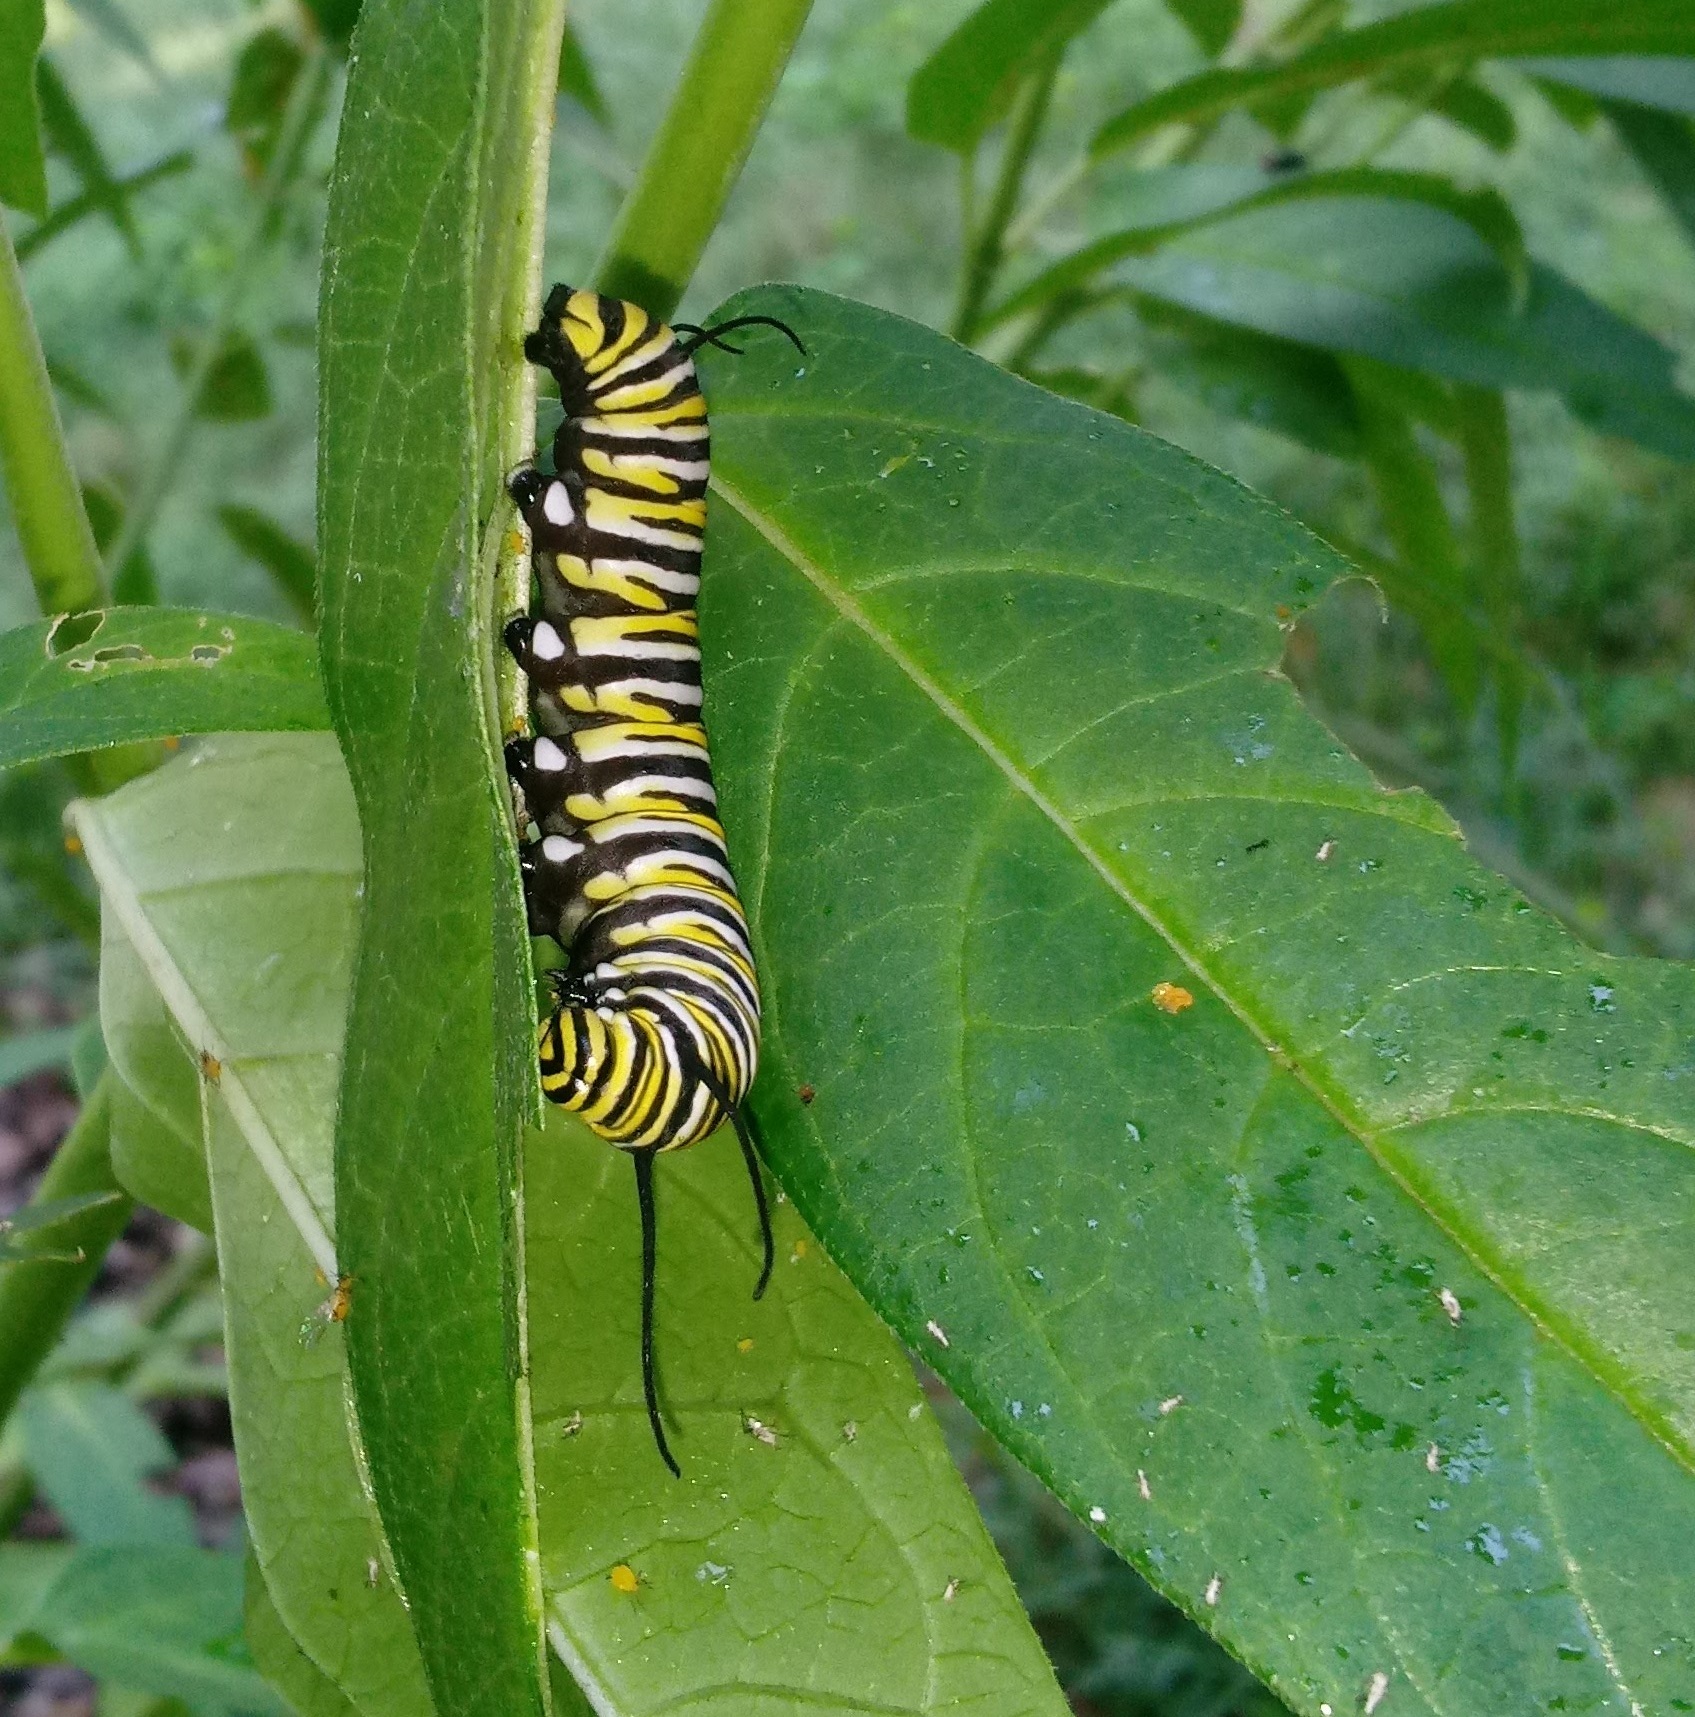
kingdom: Animalia
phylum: Arthropoda
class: Insecta
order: Lepidoptera
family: Nymphalidae
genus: Danaus
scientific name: Danaus plexippus
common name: Monarch
